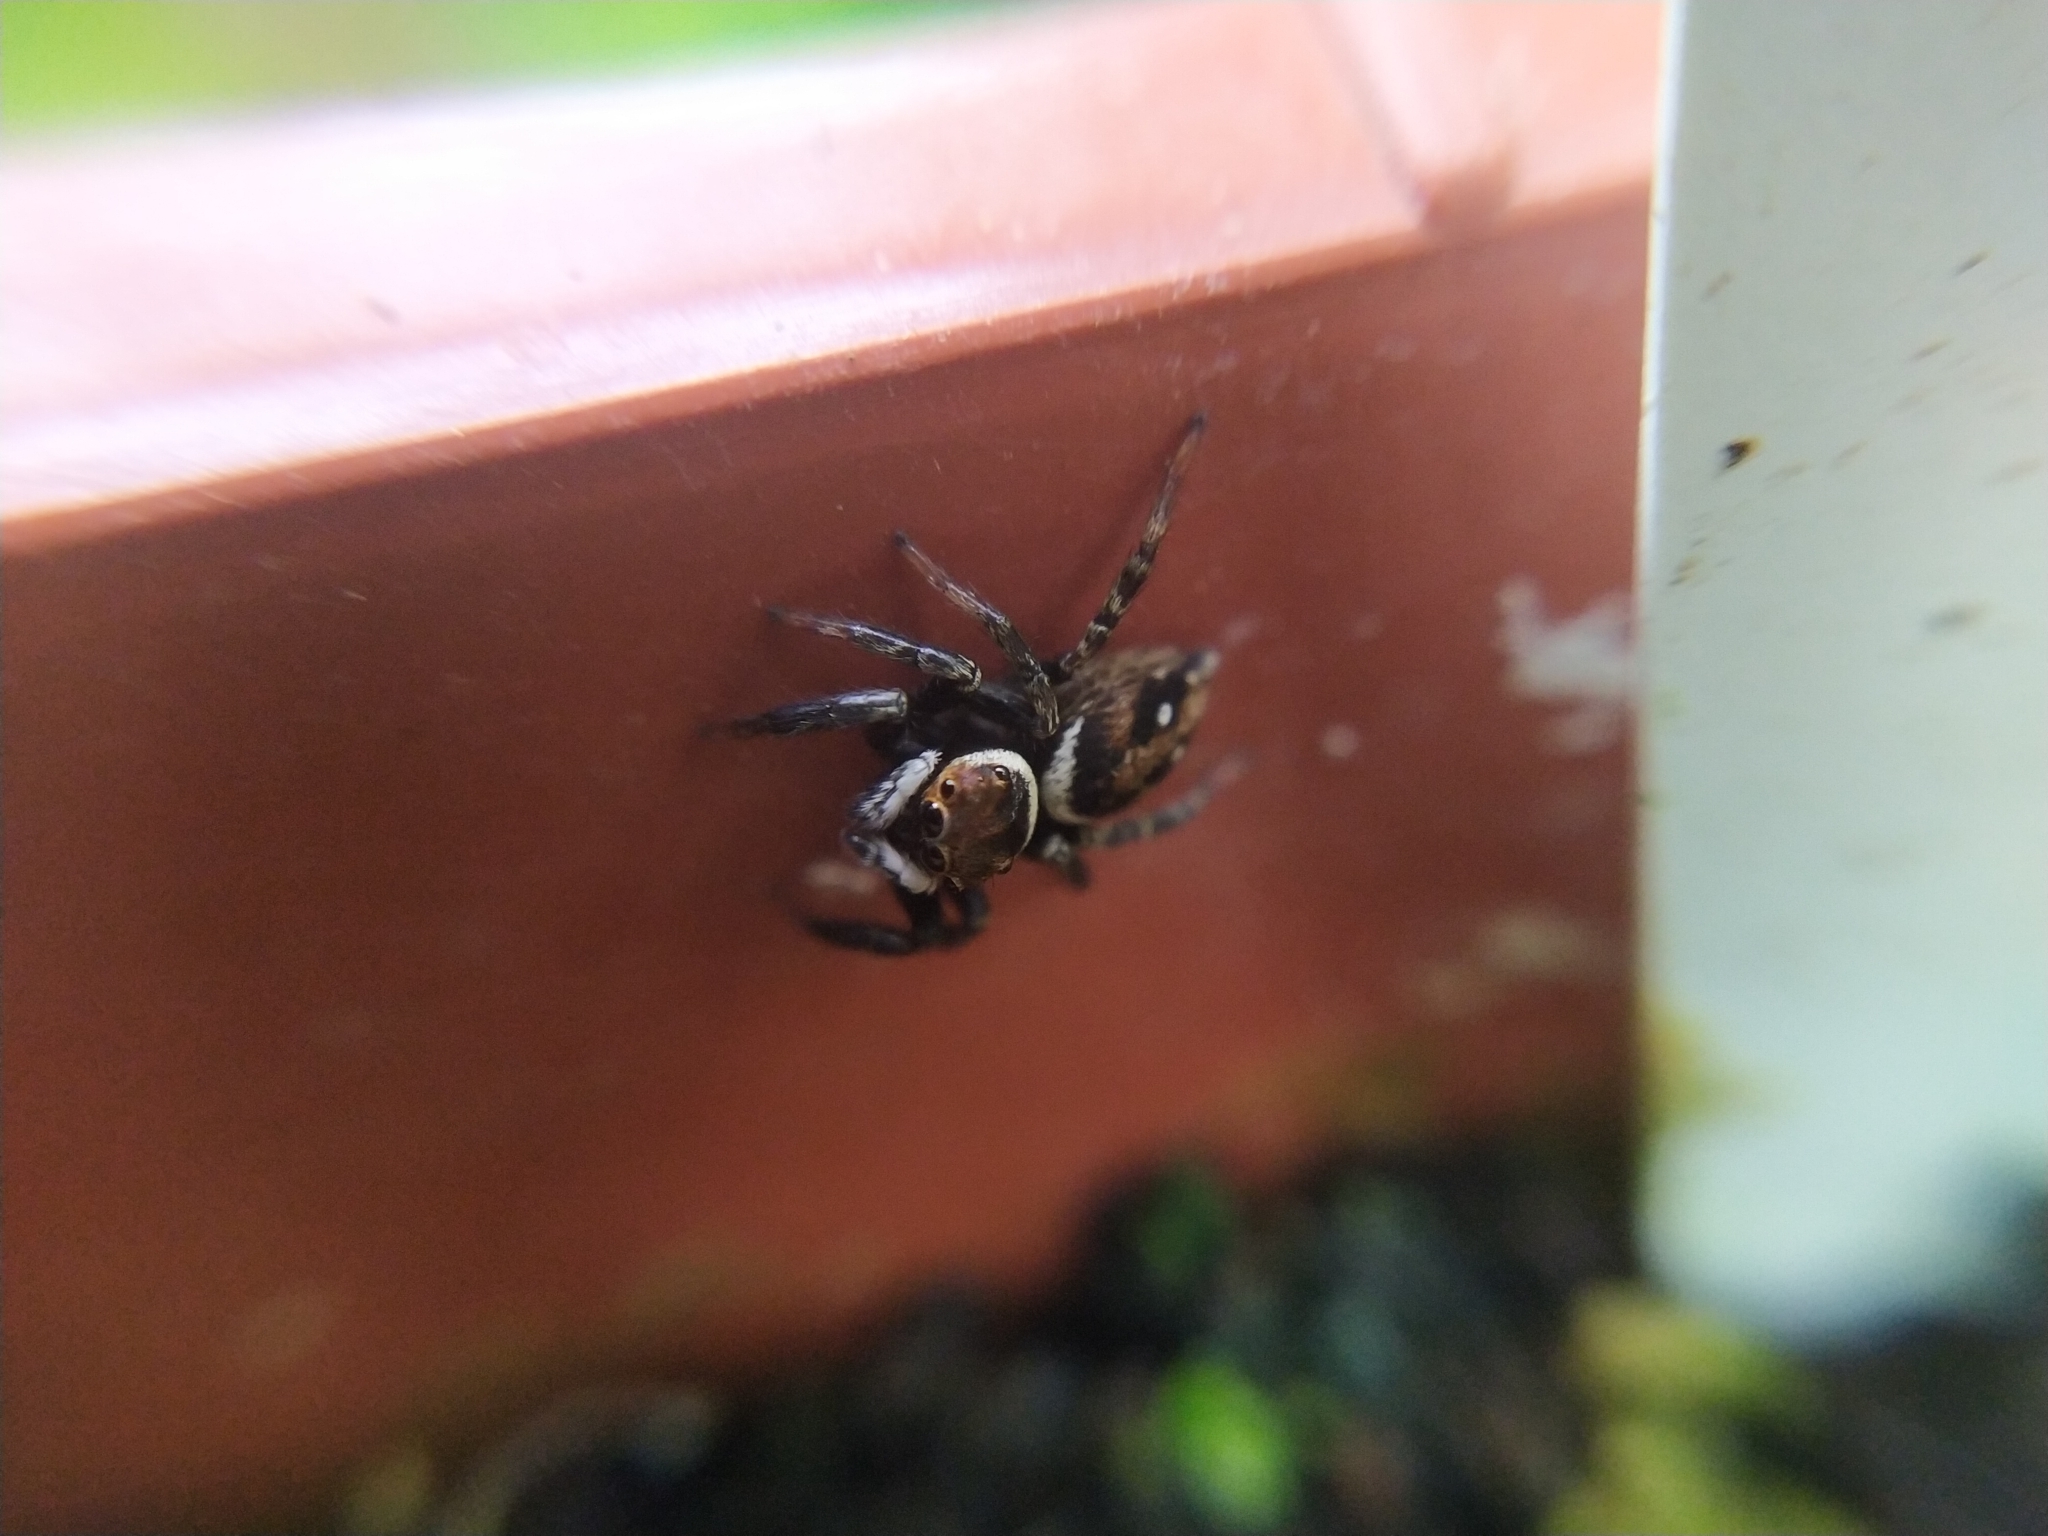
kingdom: Animalia
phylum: Arthropoda
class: Arachnida
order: Araneae
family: Salticidae
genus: Hasarius
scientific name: Hasarius adansoni
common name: Jumping spider
